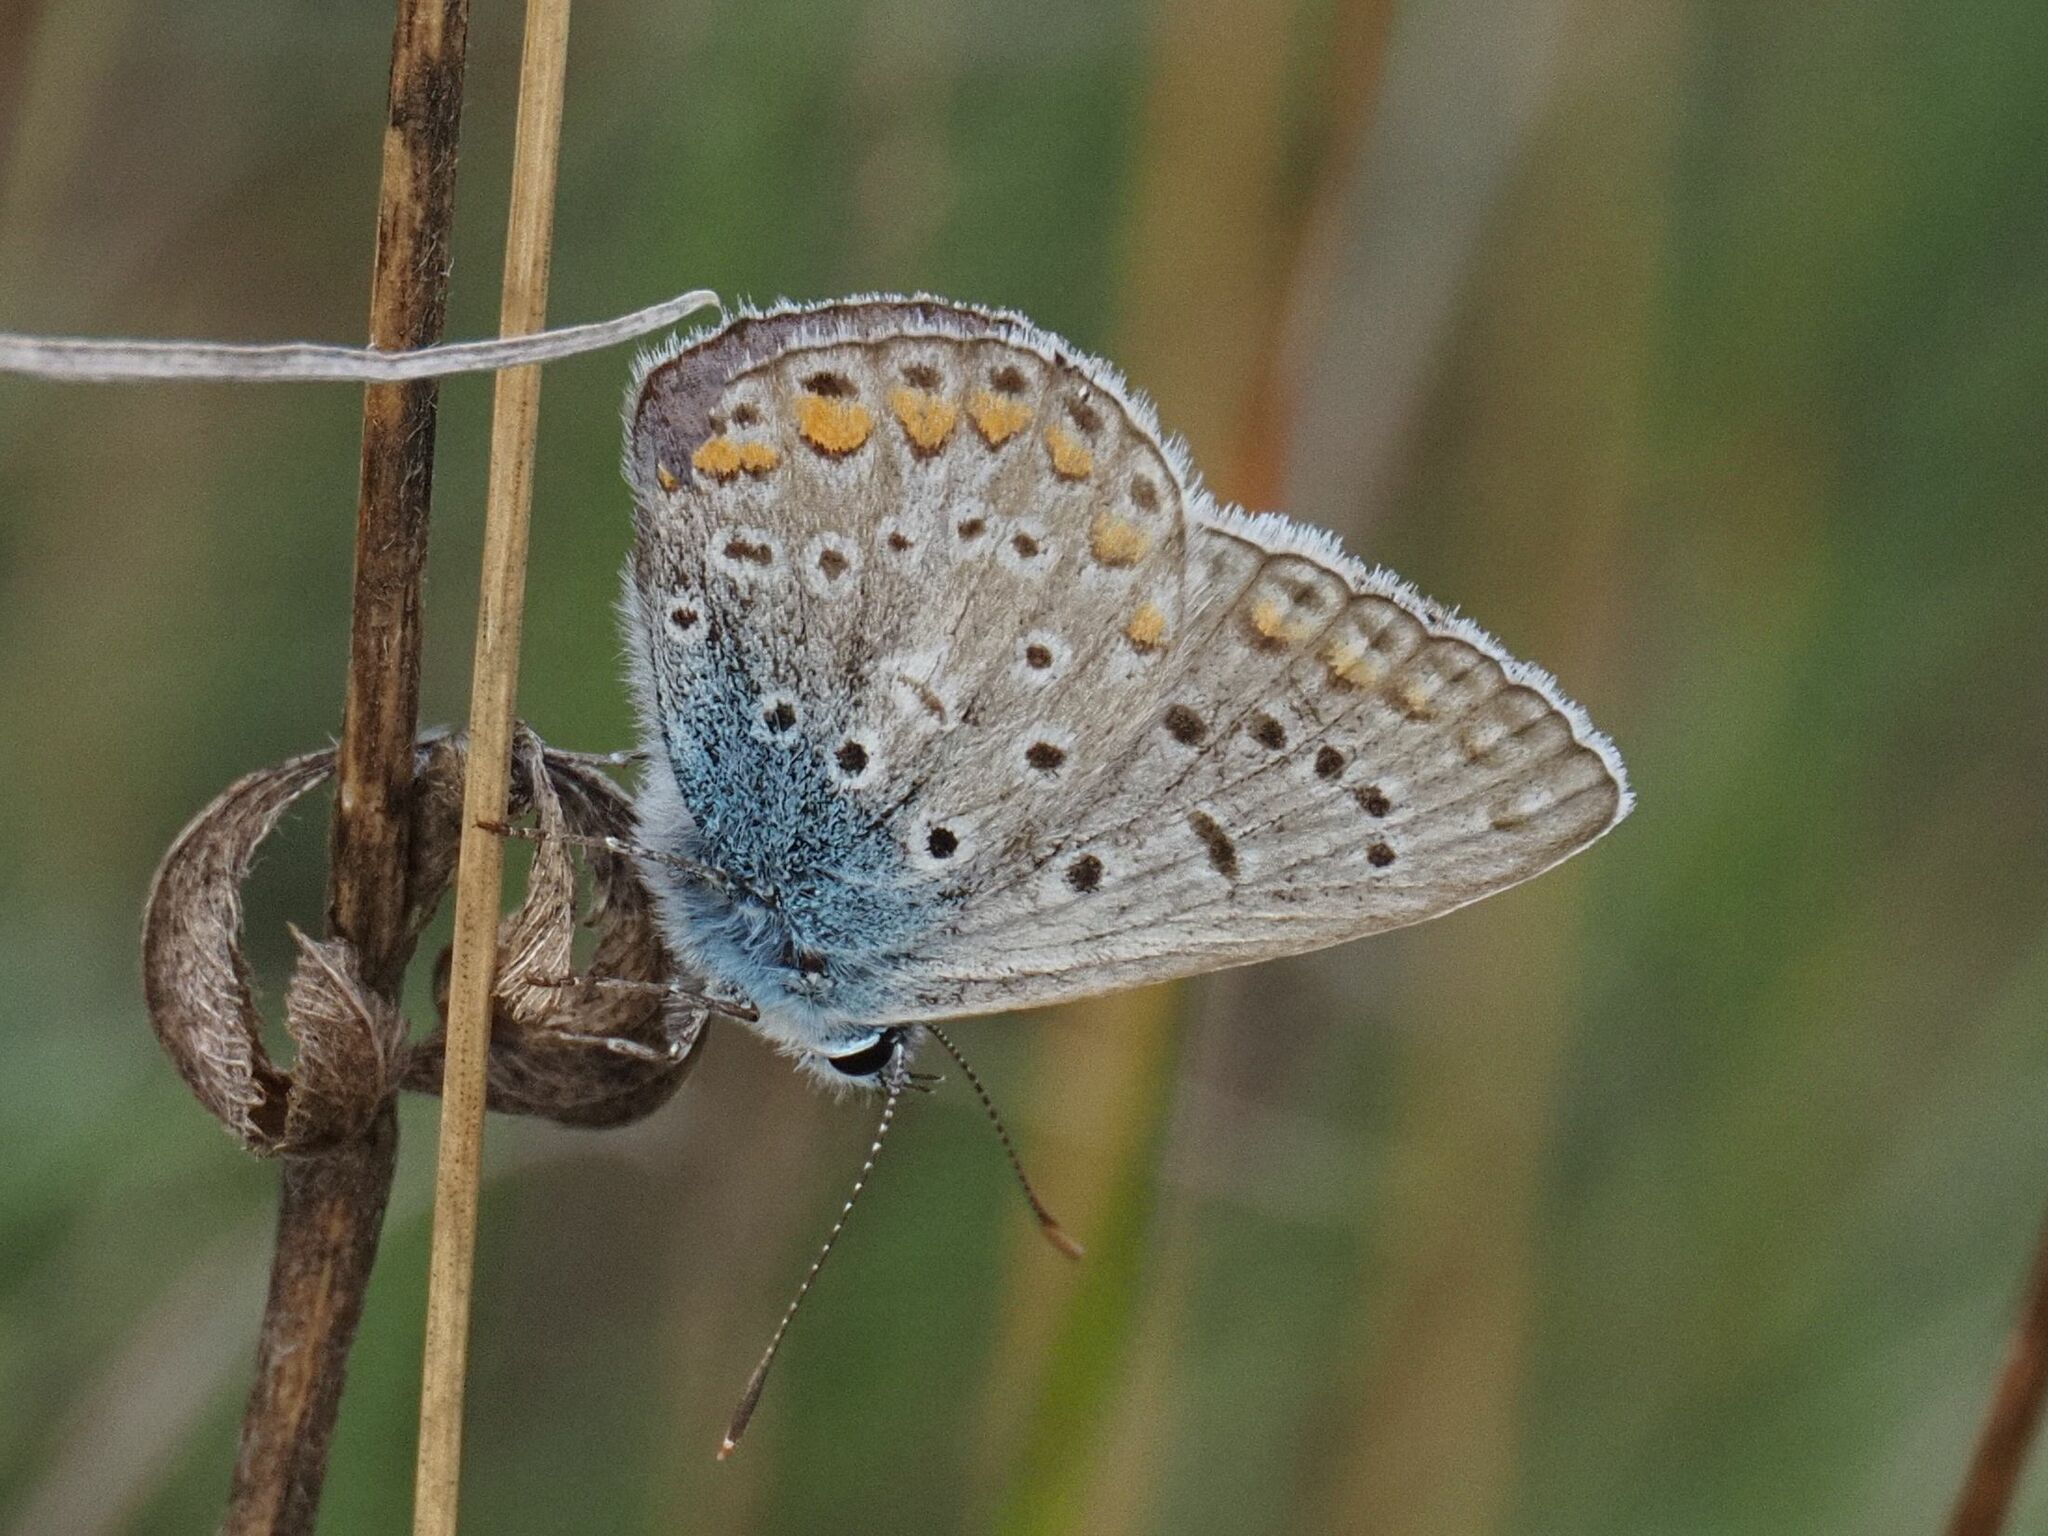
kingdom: Animalia
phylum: Arthropoda
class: Insecta
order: Lepidoptera
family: Lycaenidae
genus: Polyommatus
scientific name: Polyommatus icarus
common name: Common blue
